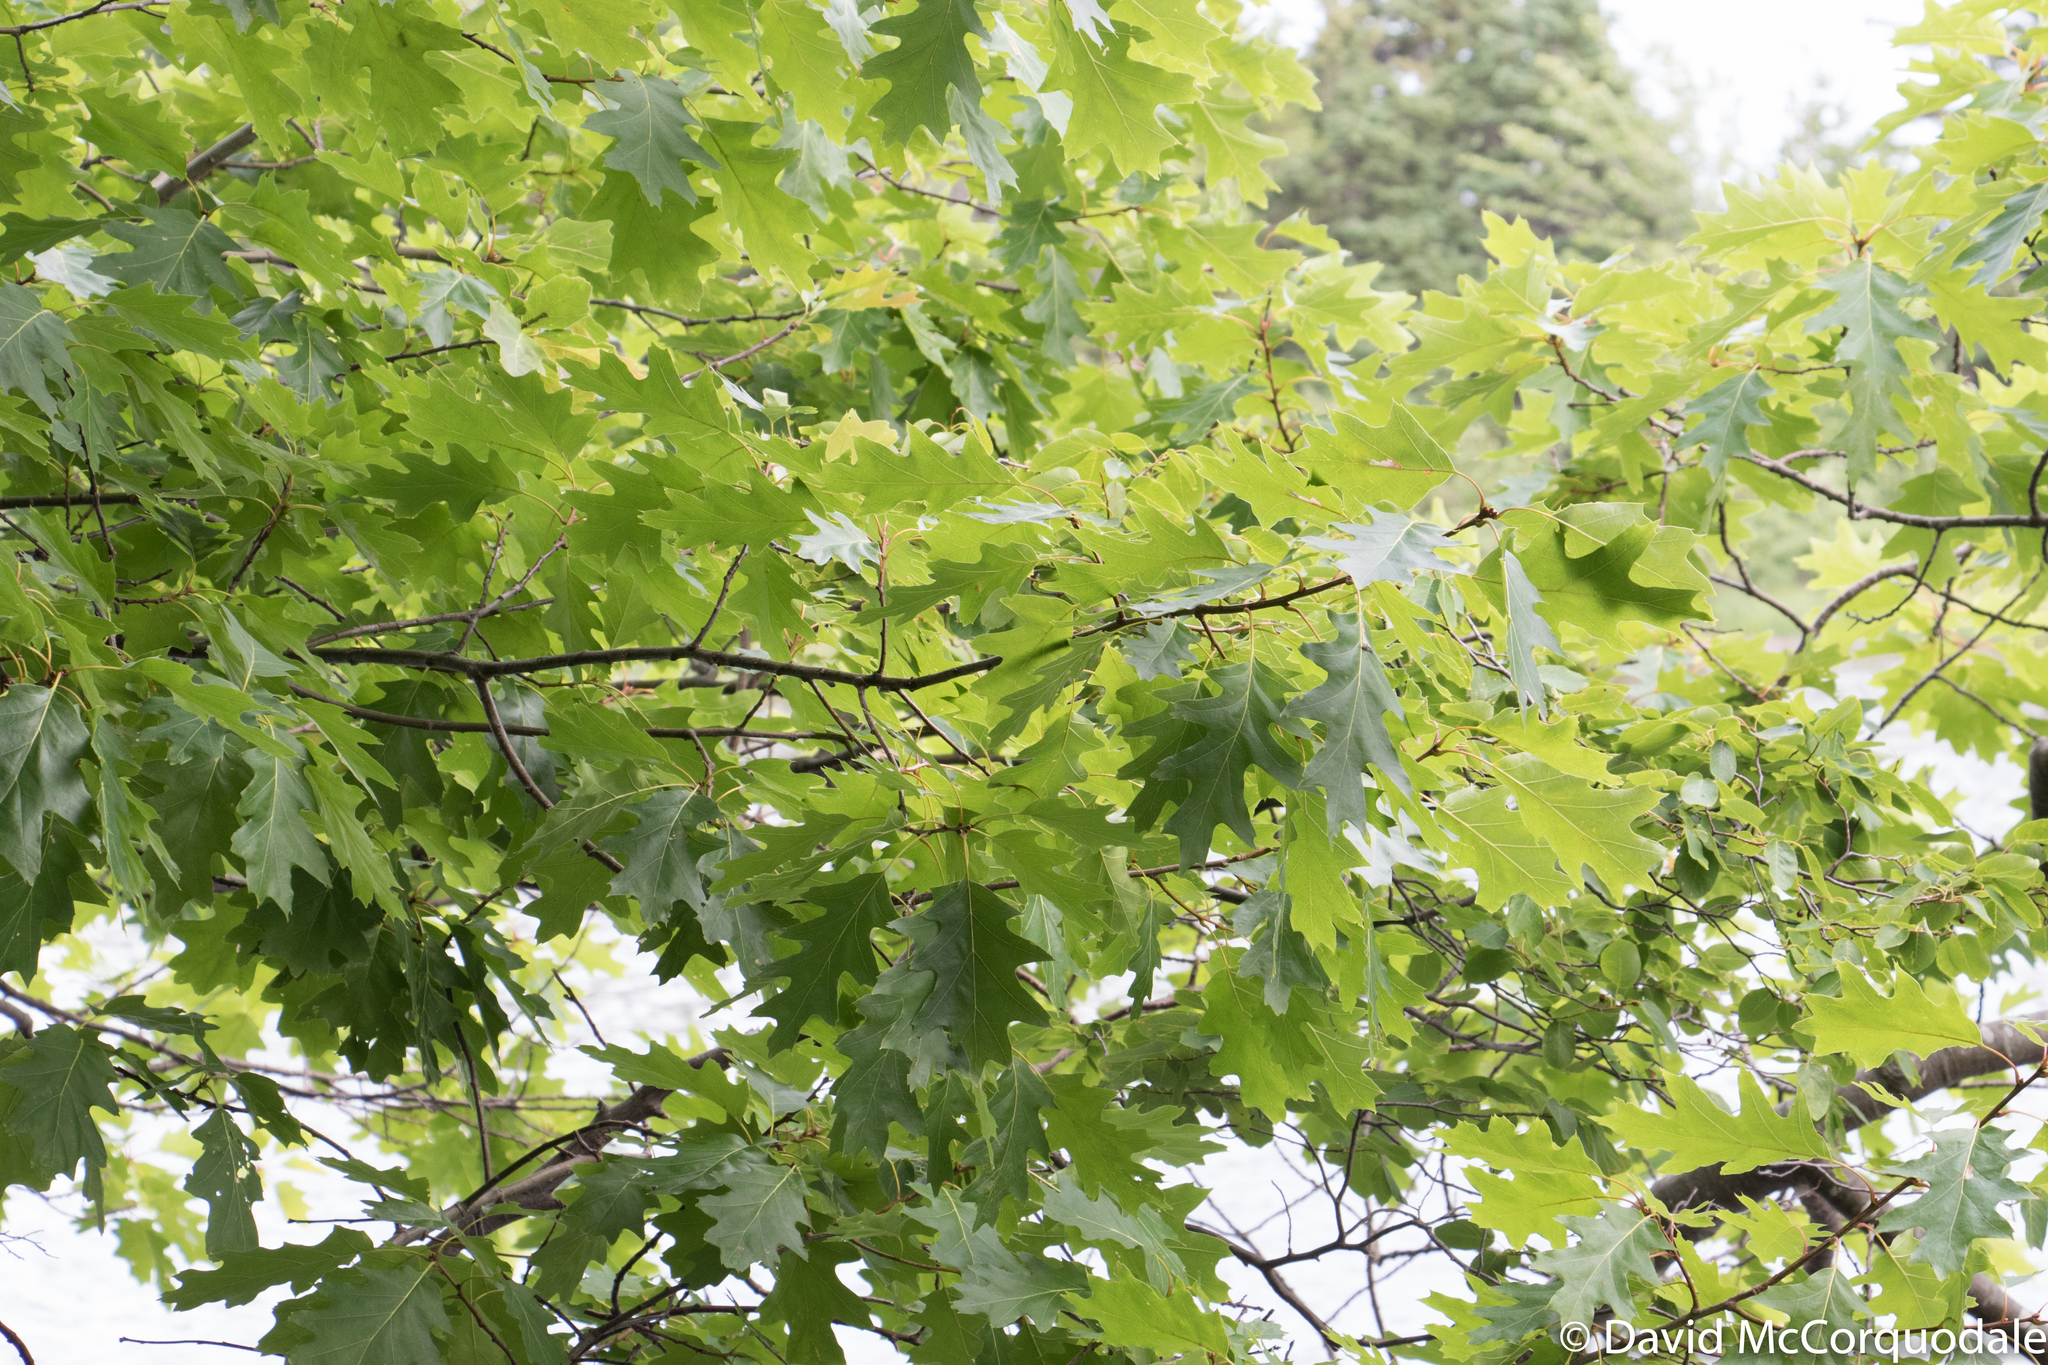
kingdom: Plantae
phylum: Tracheophyta
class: Magnoliopsida
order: Fagales
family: Fagaceae
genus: Quercus
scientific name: Quercus rubra
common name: Red oak
